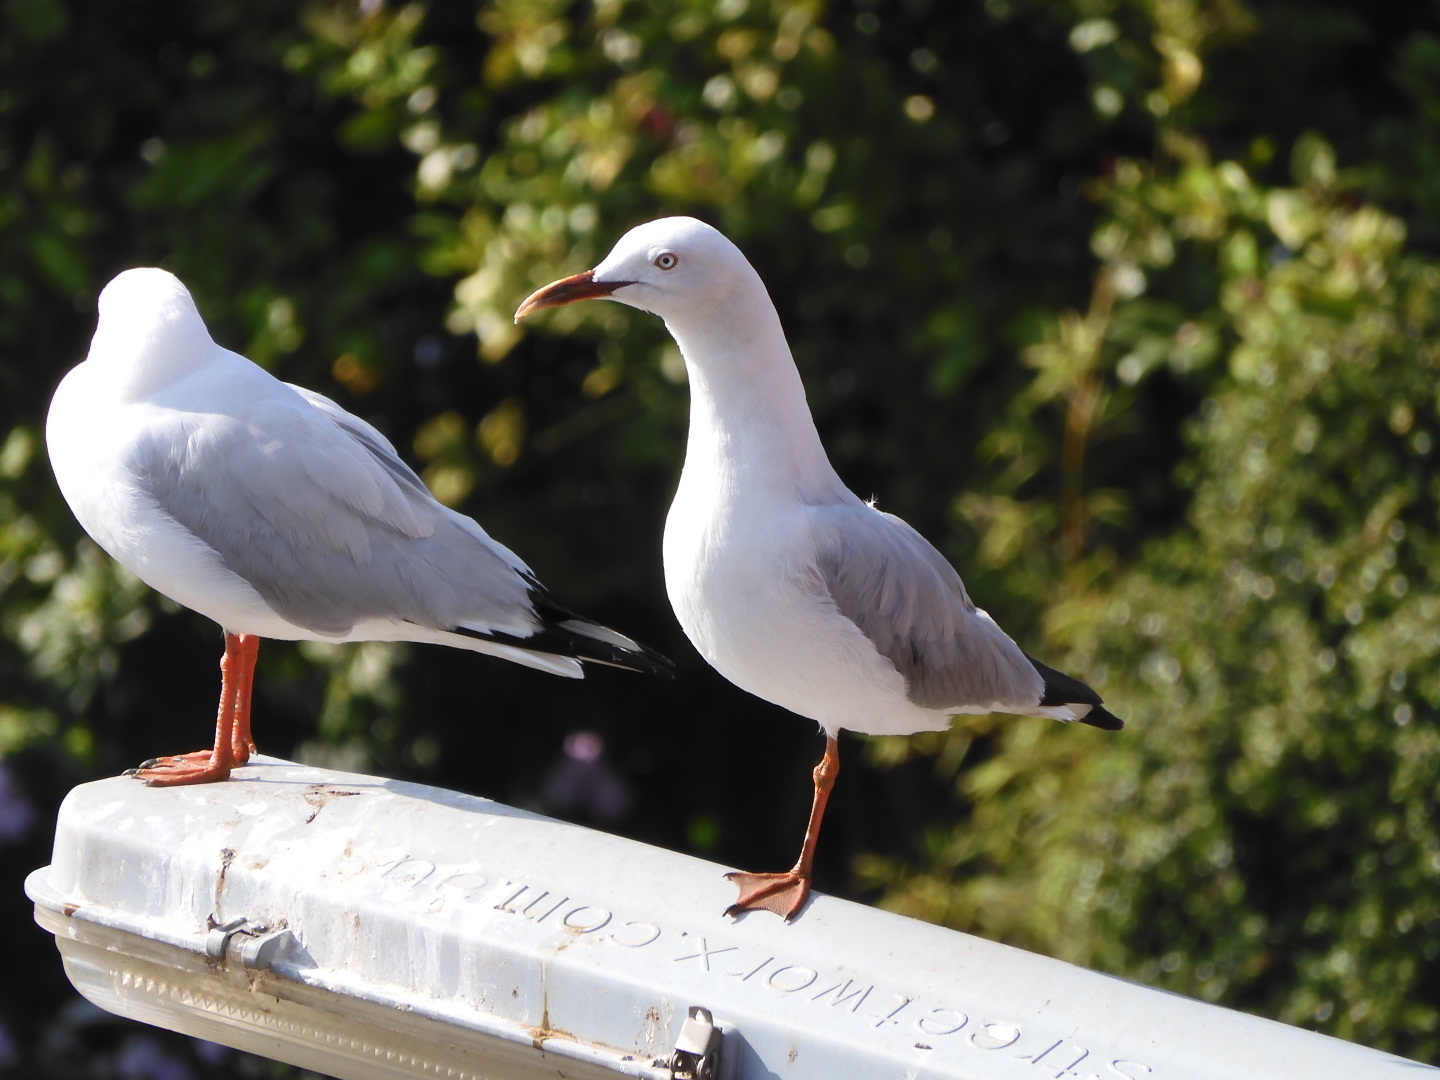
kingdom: Animalia
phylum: Chordata
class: Aves
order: Charadriiformes
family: Laridae
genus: Chroicocephalus
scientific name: Chroicocephalus novaehollandiae
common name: Silver gull
